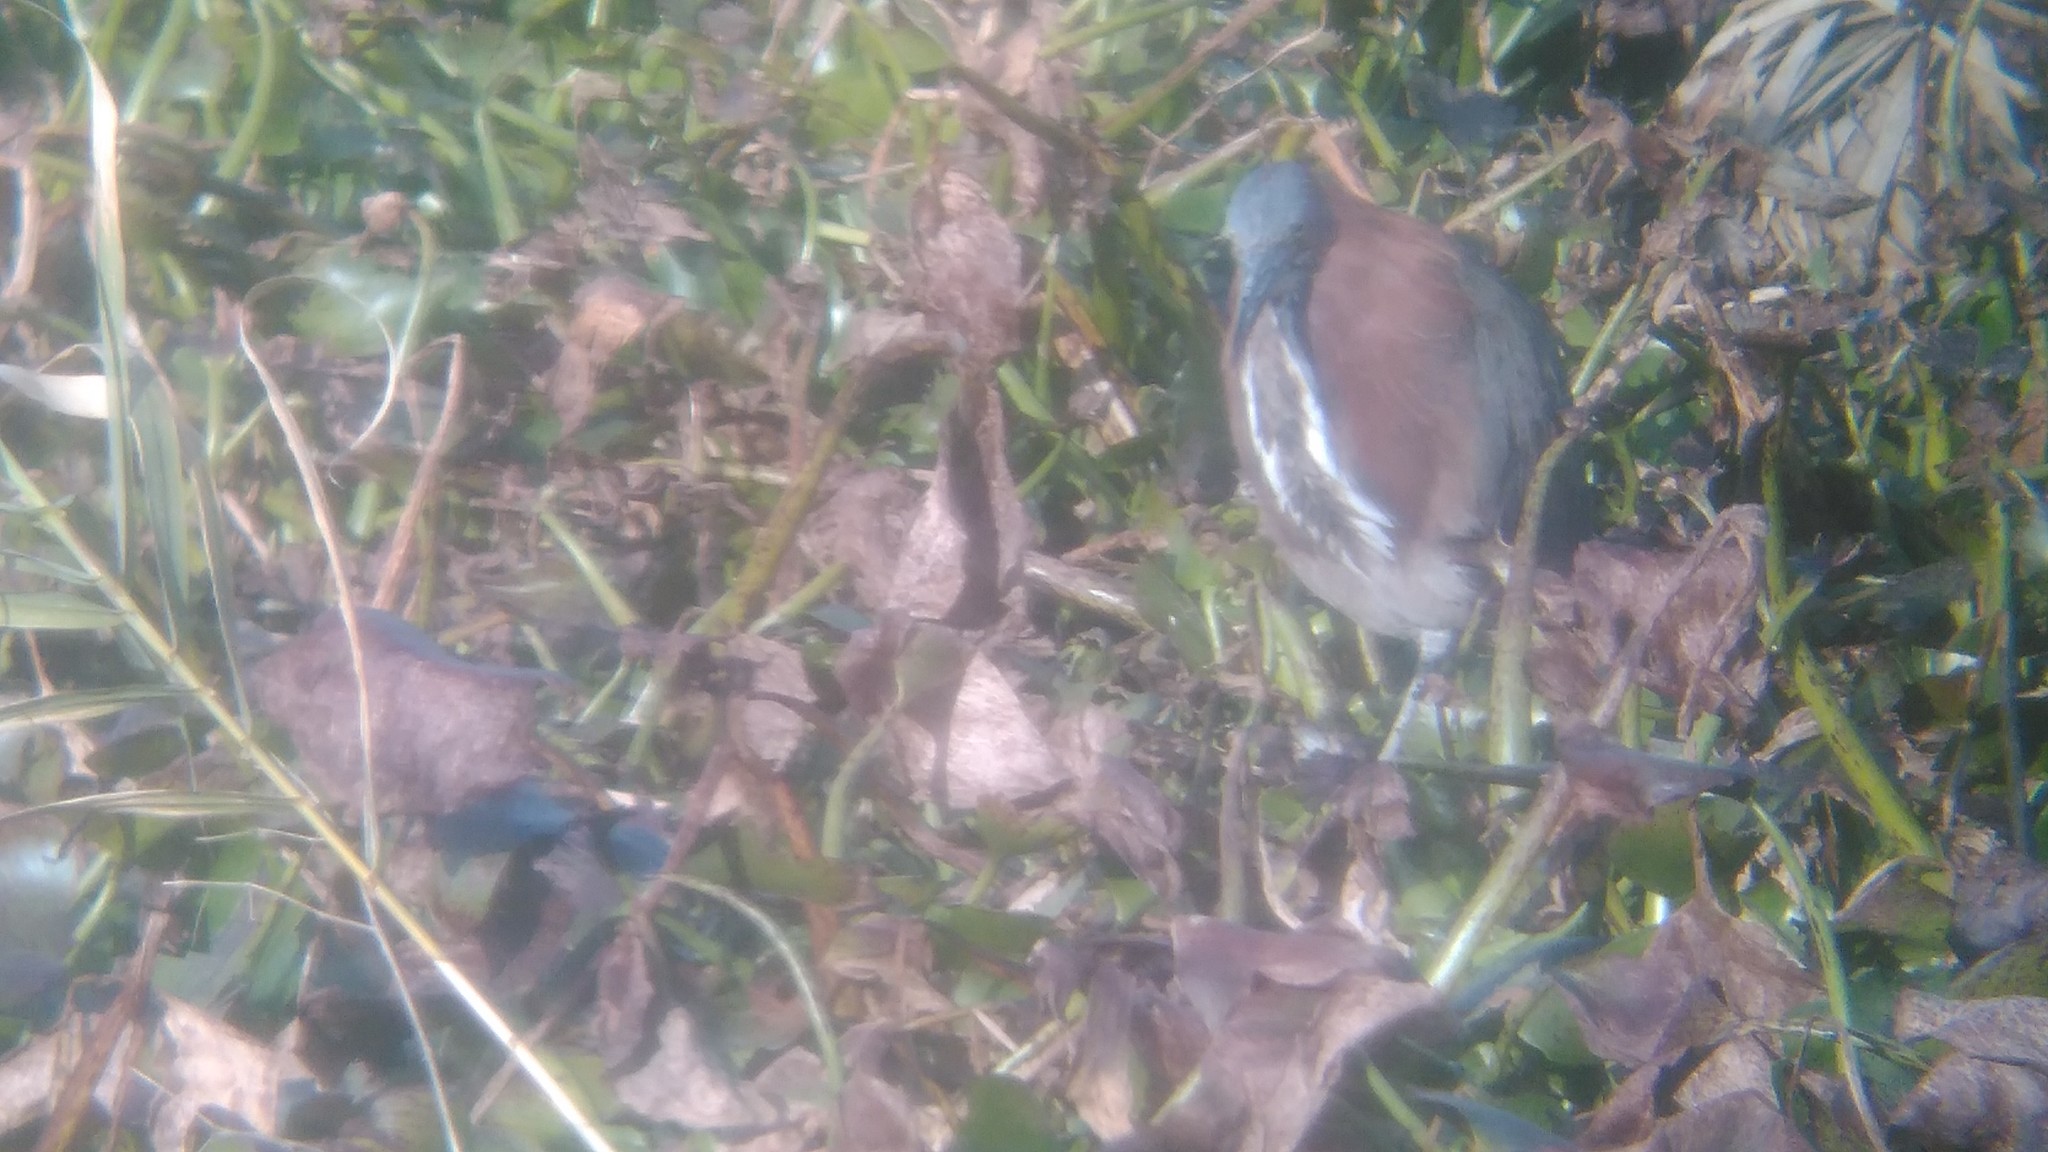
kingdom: Animalia
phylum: Chordata
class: Aves
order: Pelecaniformes
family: Ardeidae
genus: Tigrisoma
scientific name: Tigrisoma lineatum
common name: Rufescent tiger-heron
